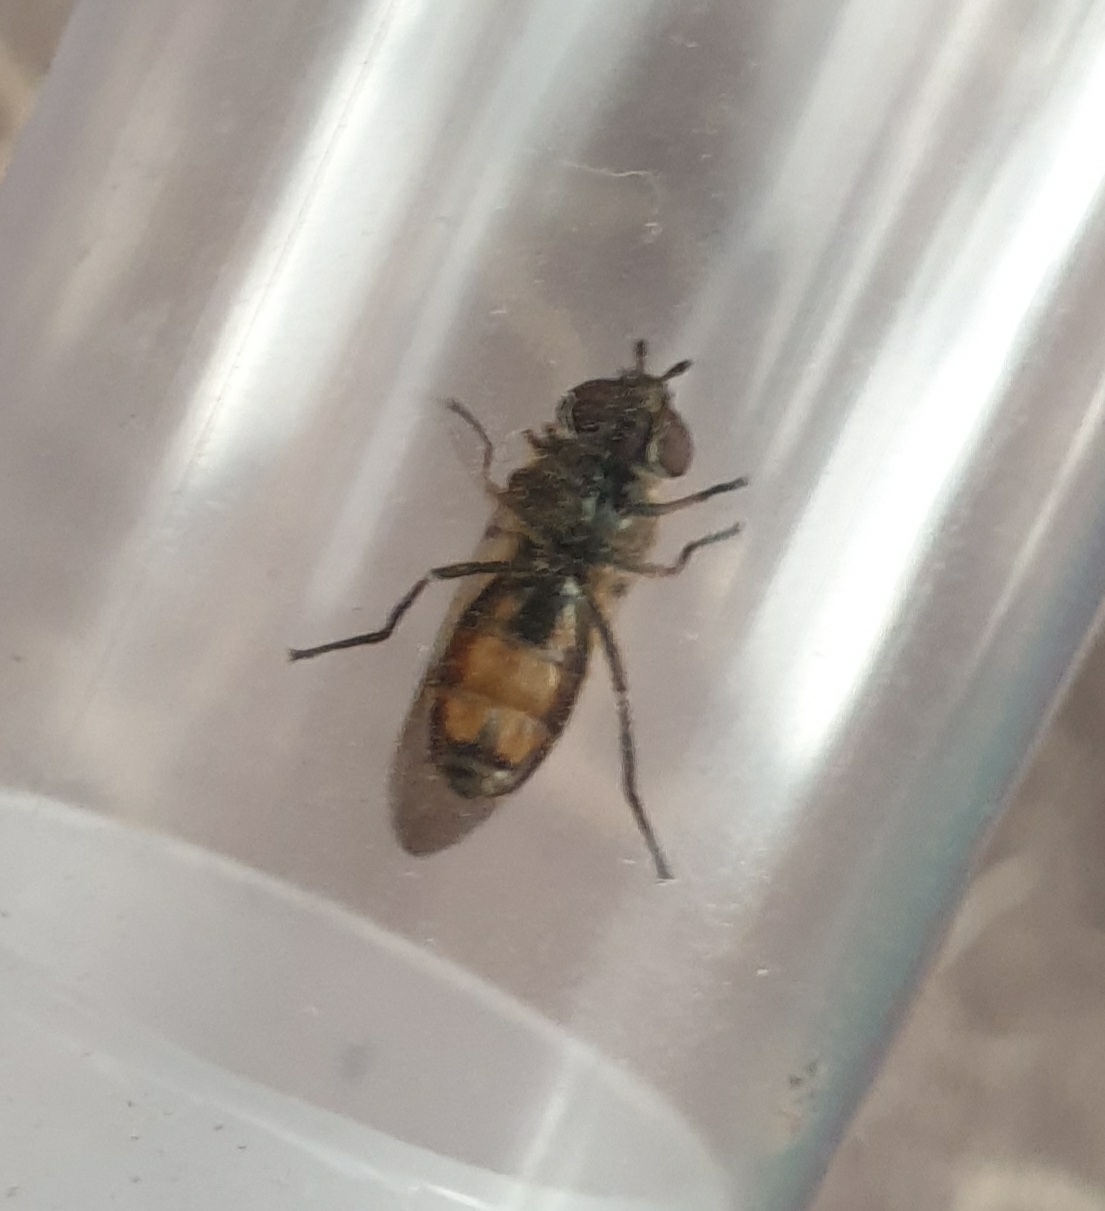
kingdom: Animalia
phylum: Arthropoda
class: Insecta
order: Diptera
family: Syrphidae
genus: Xanthandrus
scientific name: Xanthandrus comtus
